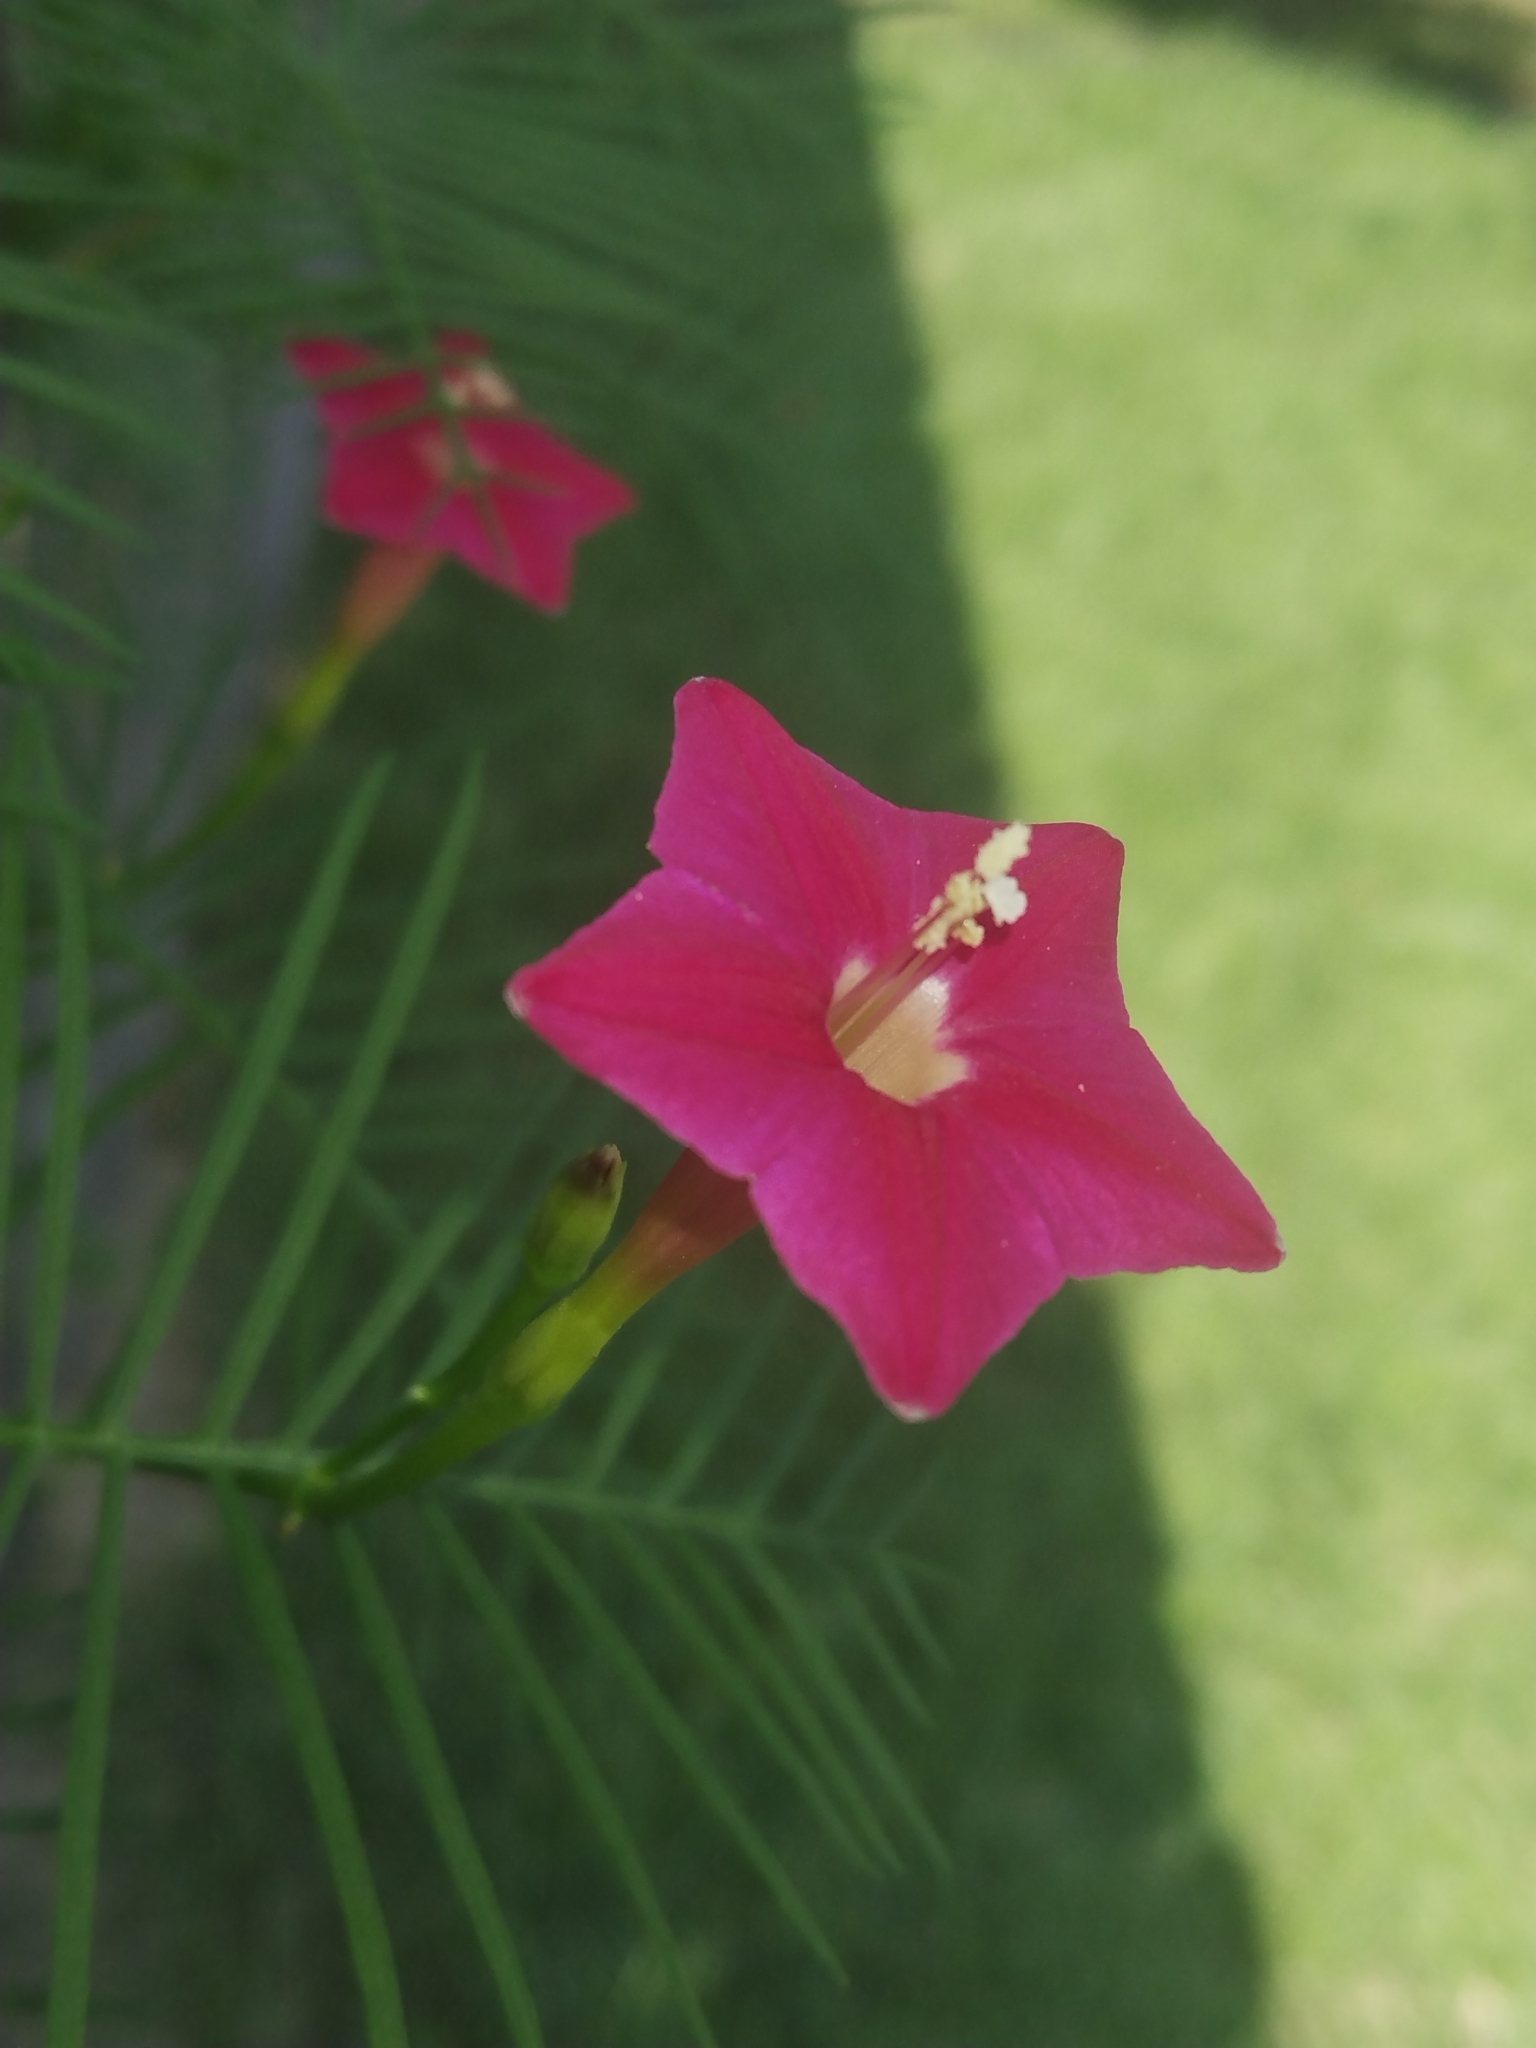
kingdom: Plantae
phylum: Tracheophyta
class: Magnoliopsida
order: Solanales
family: Convolvulaceae
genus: Ipomoea
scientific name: Ipomoea quamoclit
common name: Cypress vine
